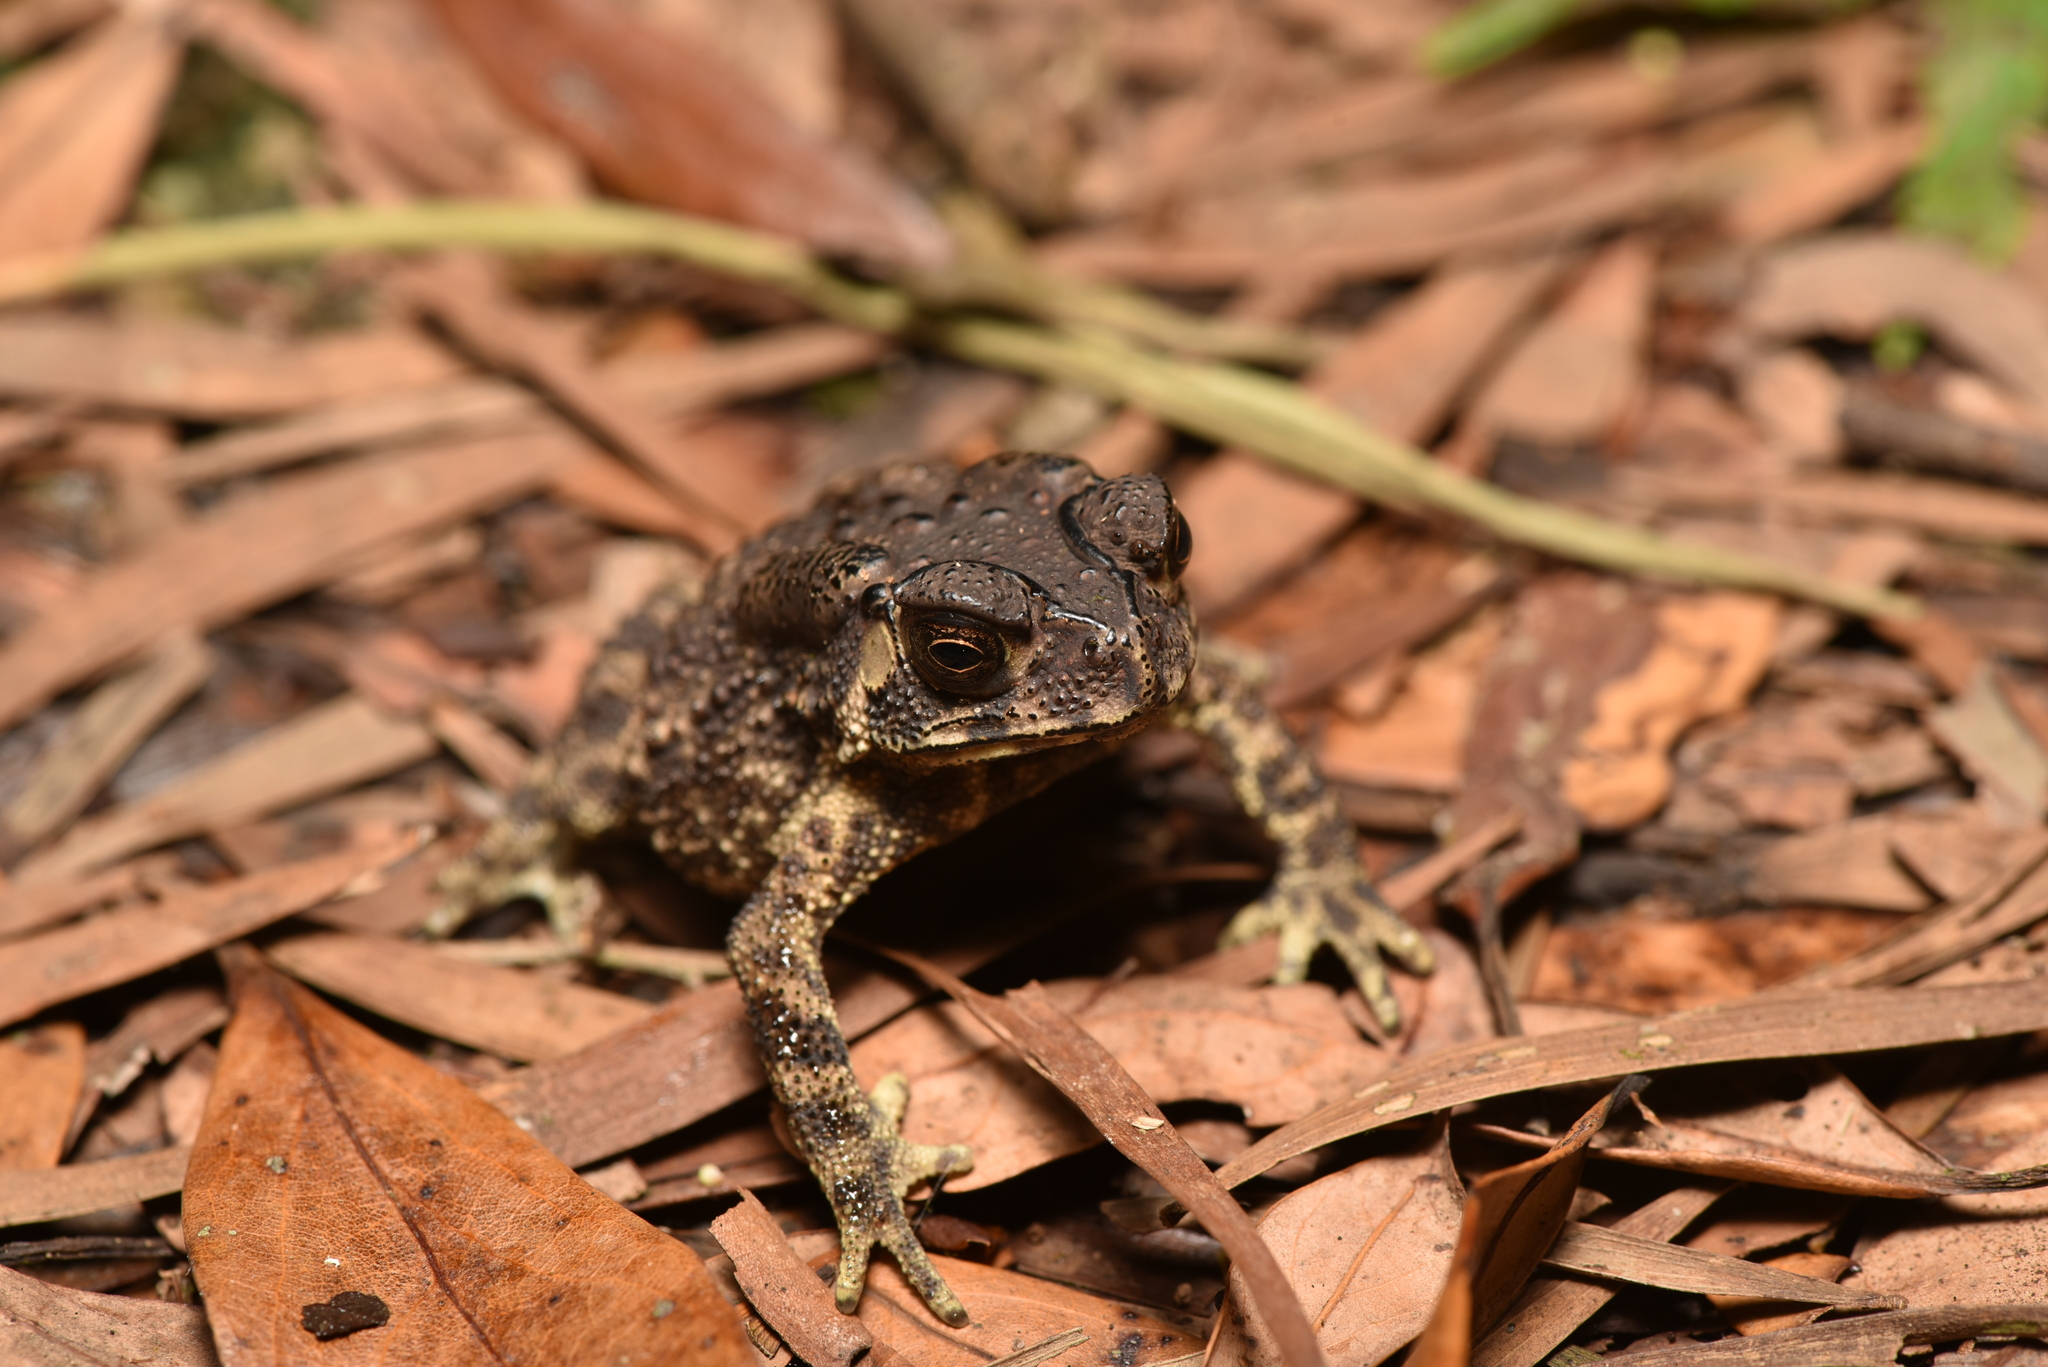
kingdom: Animalia
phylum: Chordata
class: Amphibia
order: Anura
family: Bufonidae
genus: Duttaphrynus
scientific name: Duttaphrynus melanostictus
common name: Common sunda toad
